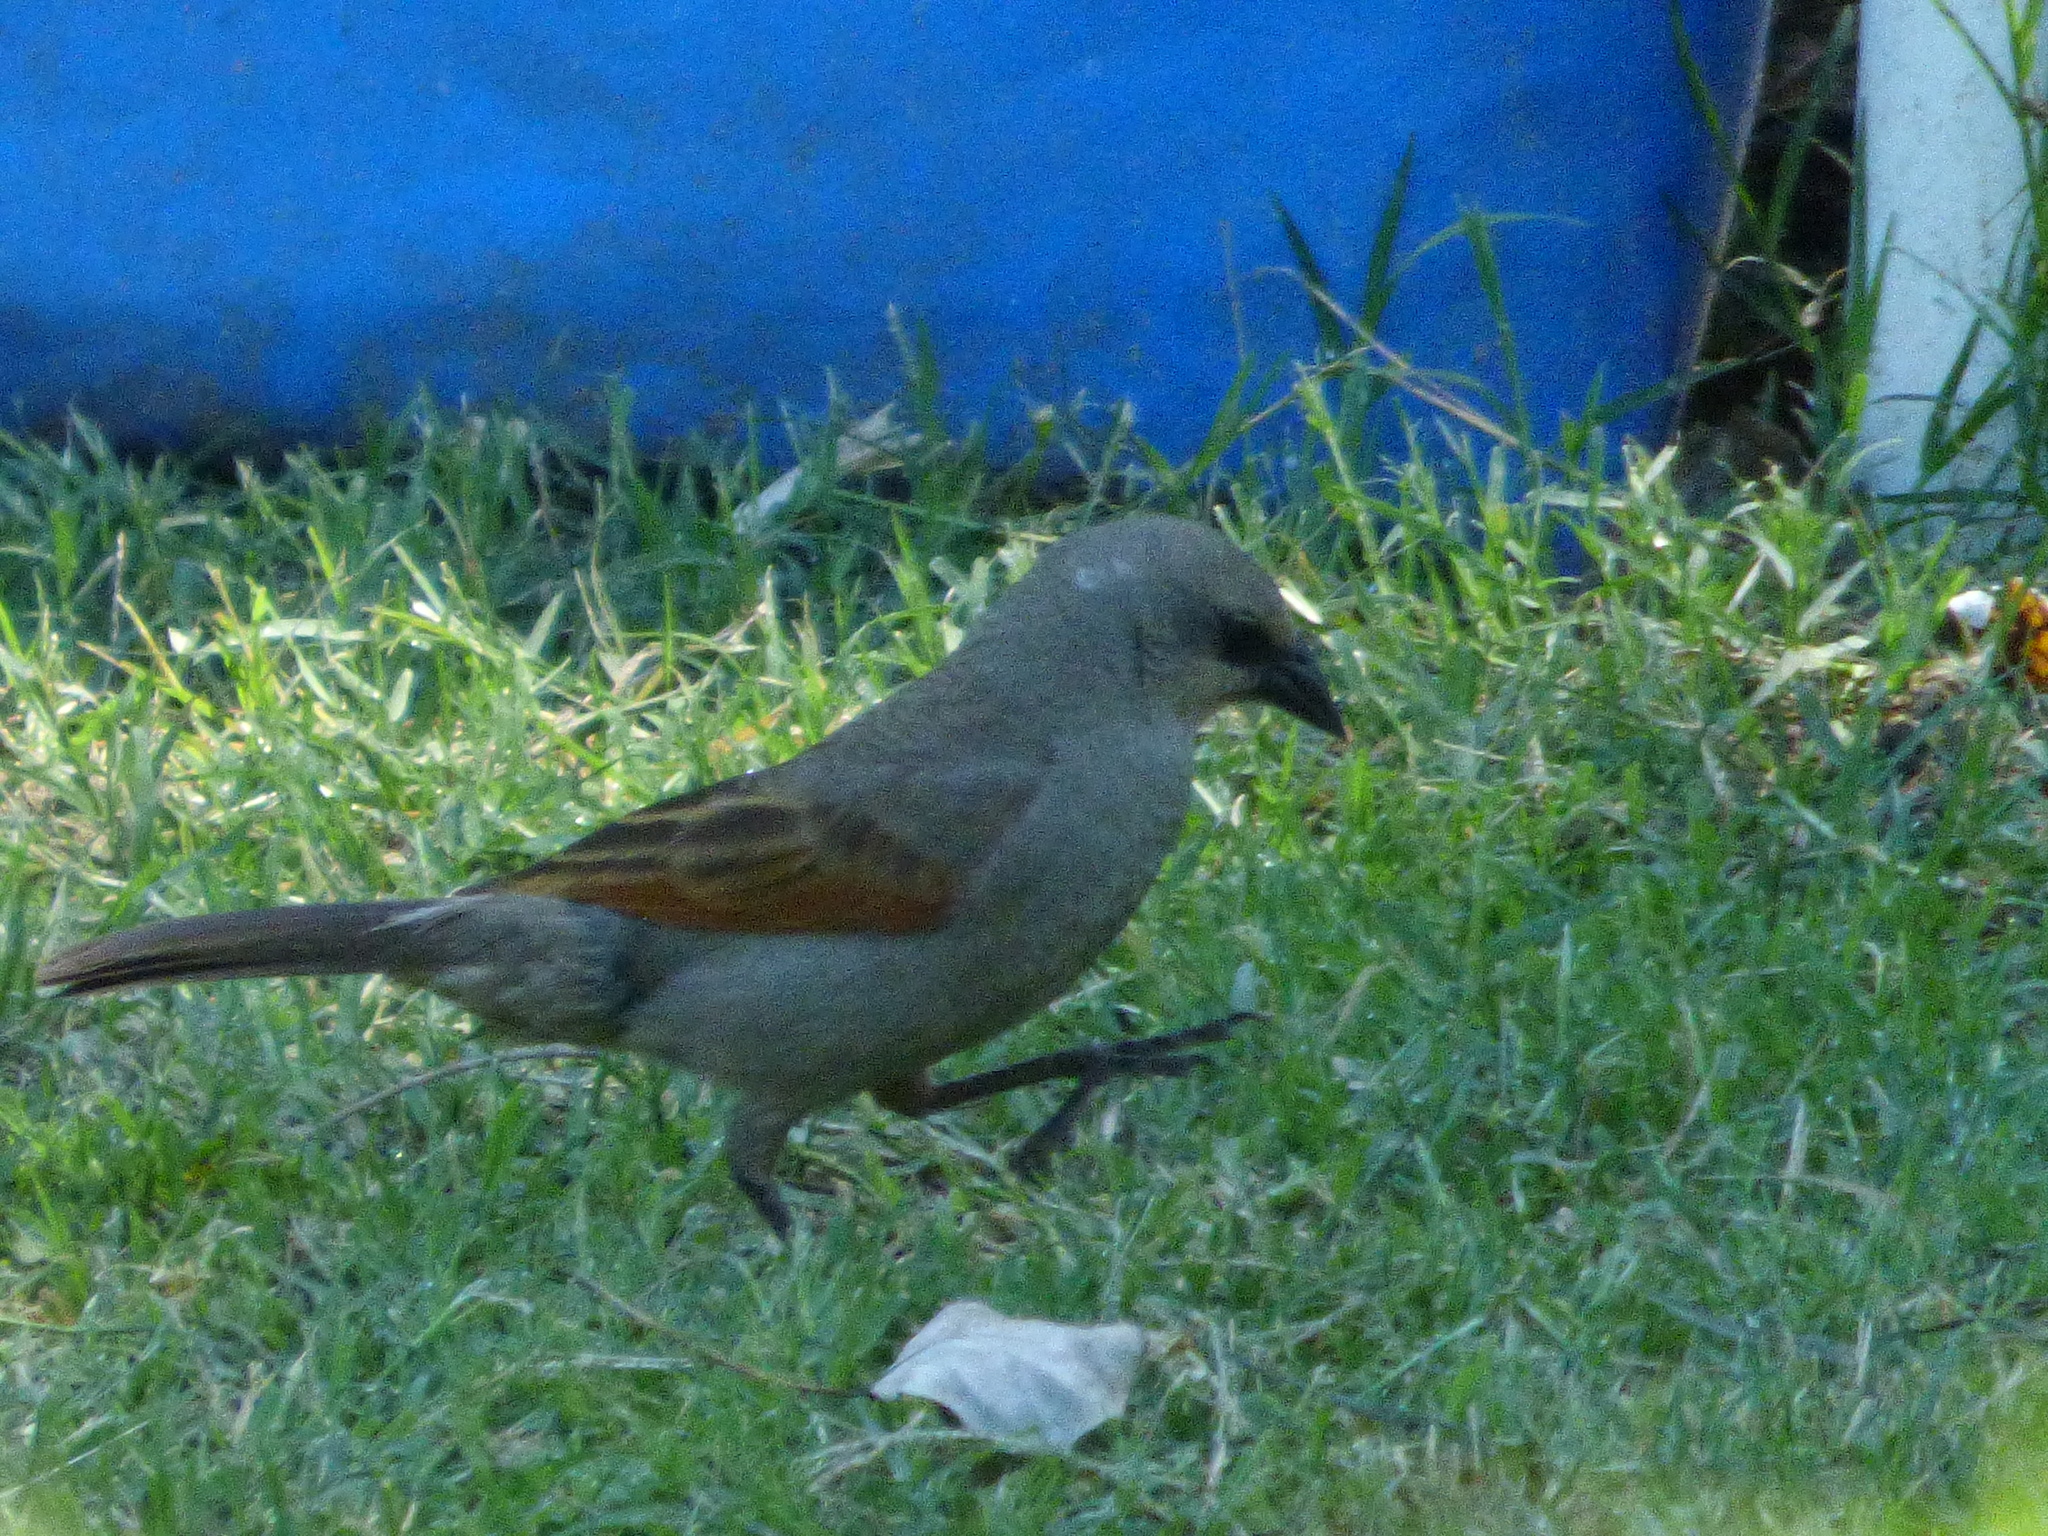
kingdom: Animalia
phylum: Chordata
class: Aves
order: Passeriformes
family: Icteridae
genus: Agelaioides
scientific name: Agelaioides badius
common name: Baywing
